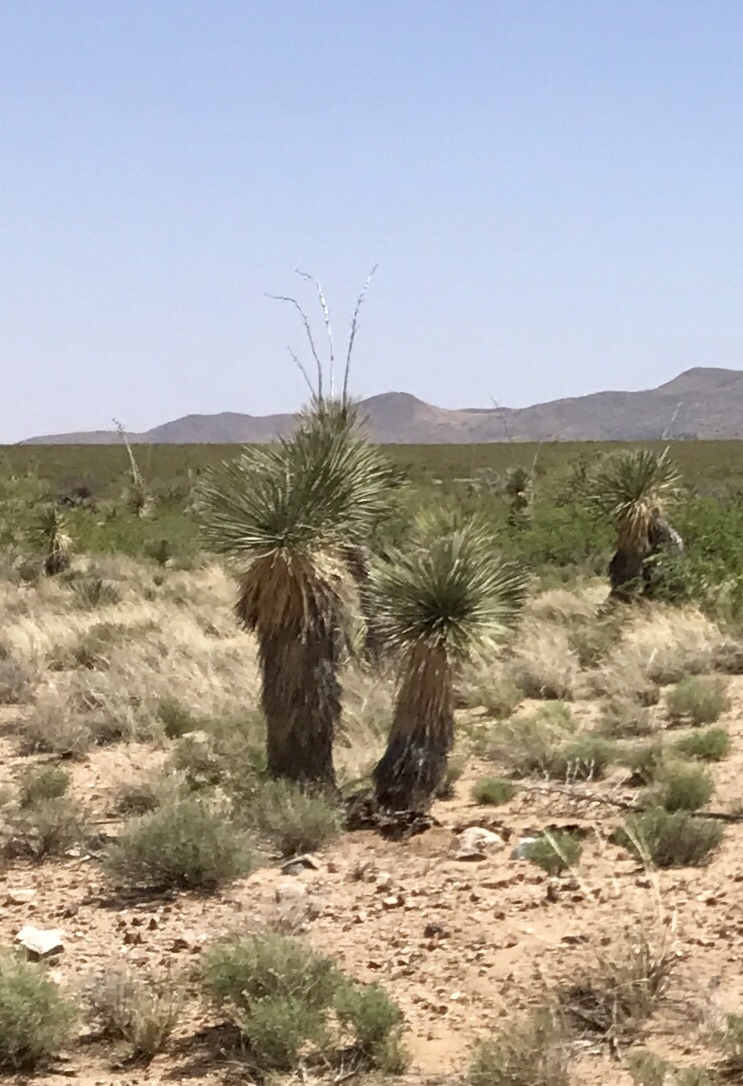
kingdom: Plantae
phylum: Tracheophyta
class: Liliopsida
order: Asparagales
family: Asparagaceae
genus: Yucca
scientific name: Yucca elata
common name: Palmella
